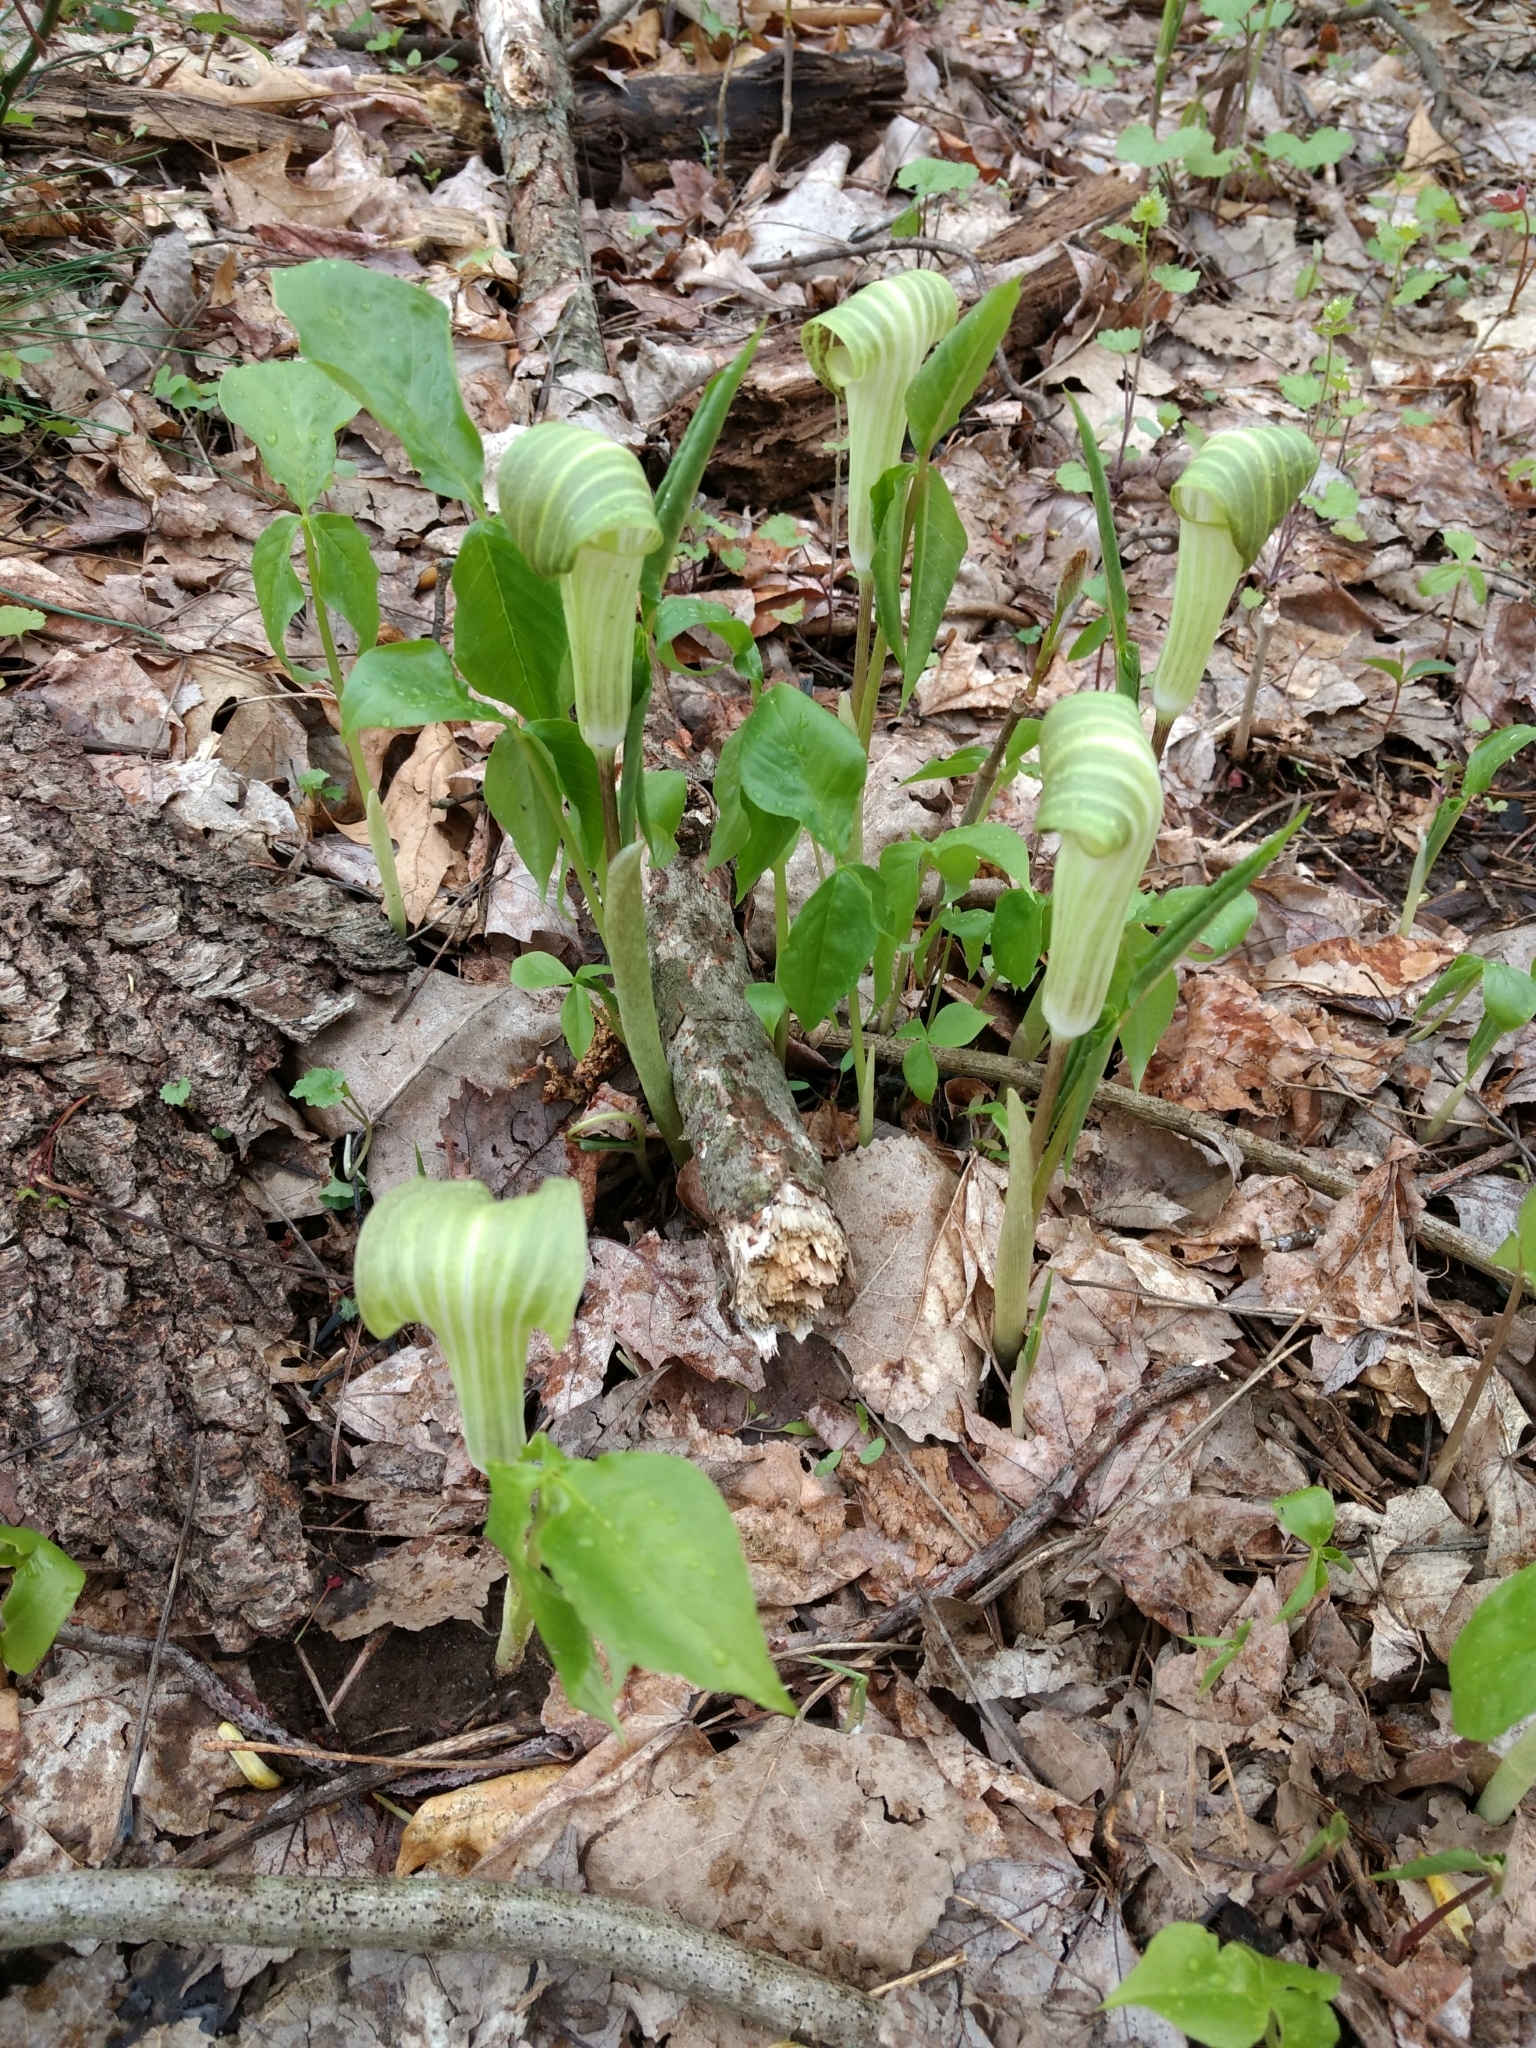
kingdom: Plantae
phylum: Tracheophyta
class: Liliopsida
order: Alismatales
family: Araceae
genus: Arisaema
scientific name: Arisaema triphyllum
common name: Jack-in-the-pulpit
